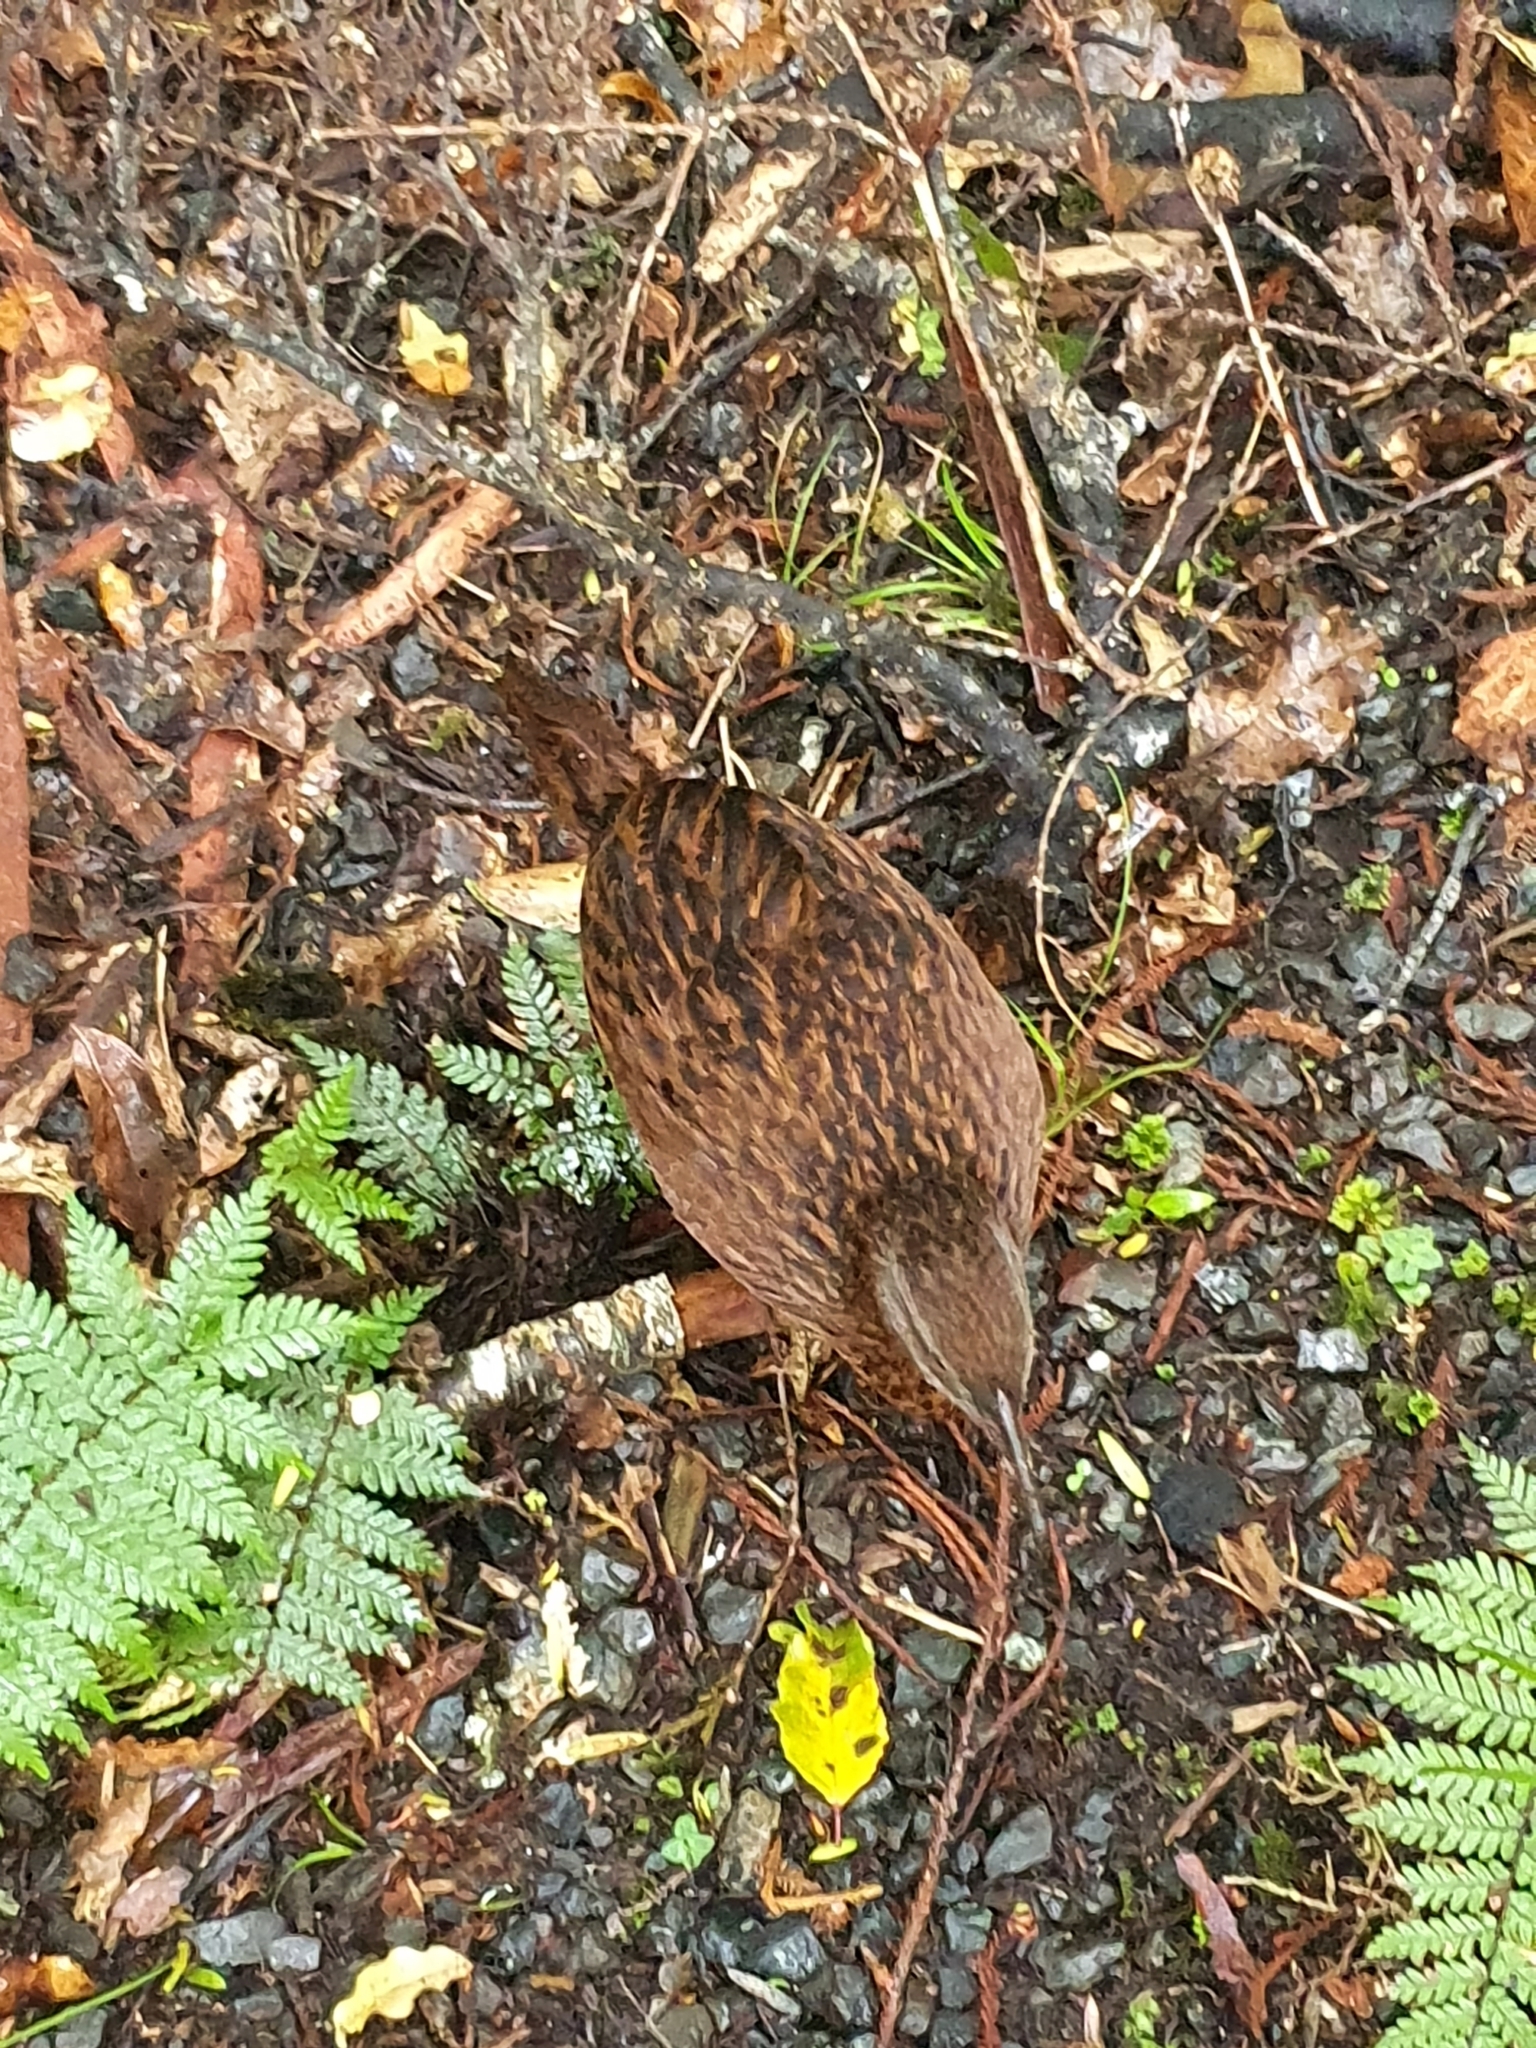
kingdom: Animalia
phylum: Chordata
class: Aves
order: Gruiformes
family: Rallidae
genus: Gallirallus
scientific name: Gallirallus australis
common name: Weka
